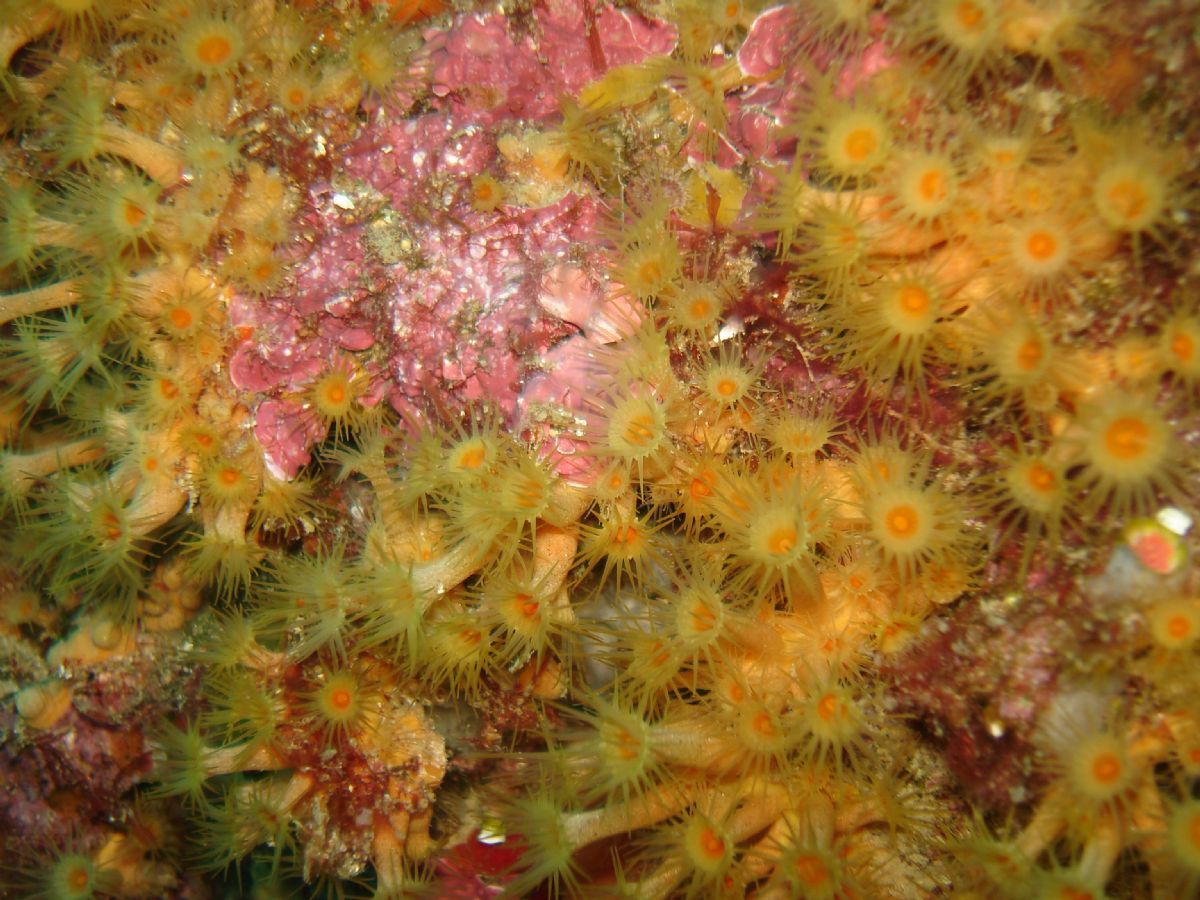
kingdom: Animalia
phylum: Cnidaria
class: Anthozoa
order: Zoantharia
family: Parazoanthidae
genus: Parazoanthus
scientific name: Parazoanthus axinellae
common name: Yellow cluster anemone
